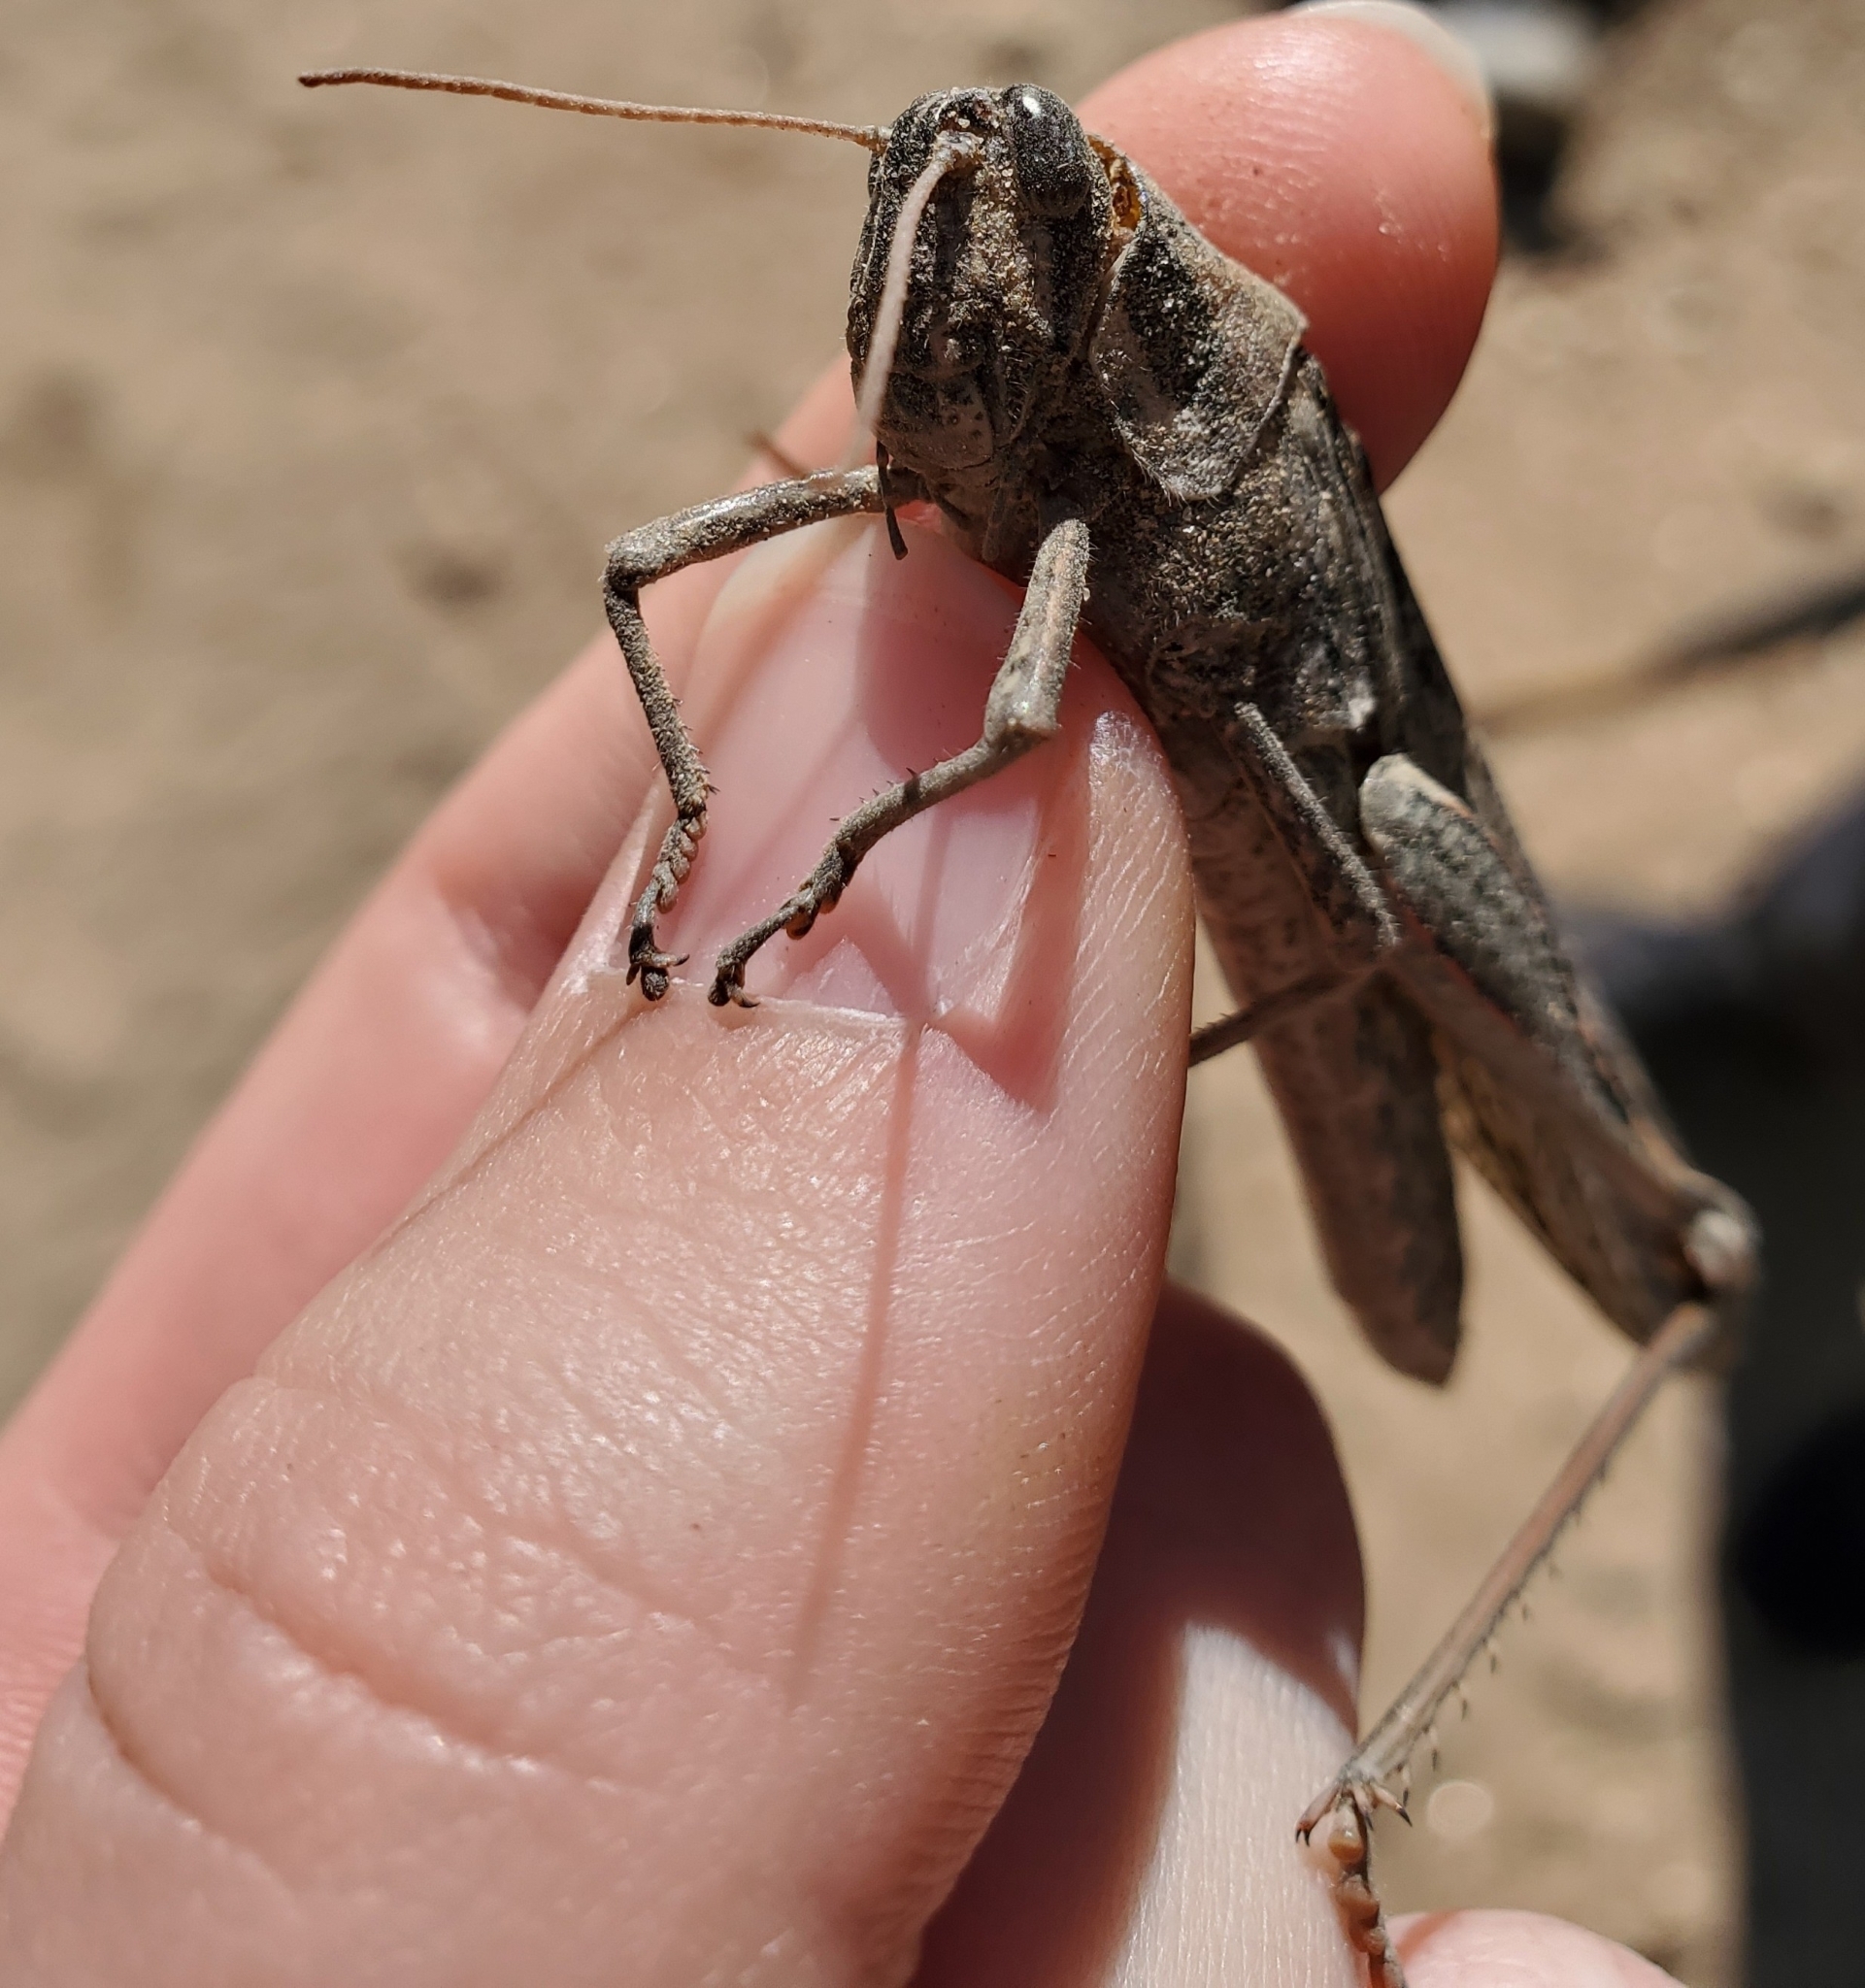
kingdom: Animalia
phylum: Arthropoda
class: Insecta
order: Orthoptera
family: Acrididae
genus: Schistocerca
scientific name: Schistocerca nitens
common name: Vagrant grasshopper
